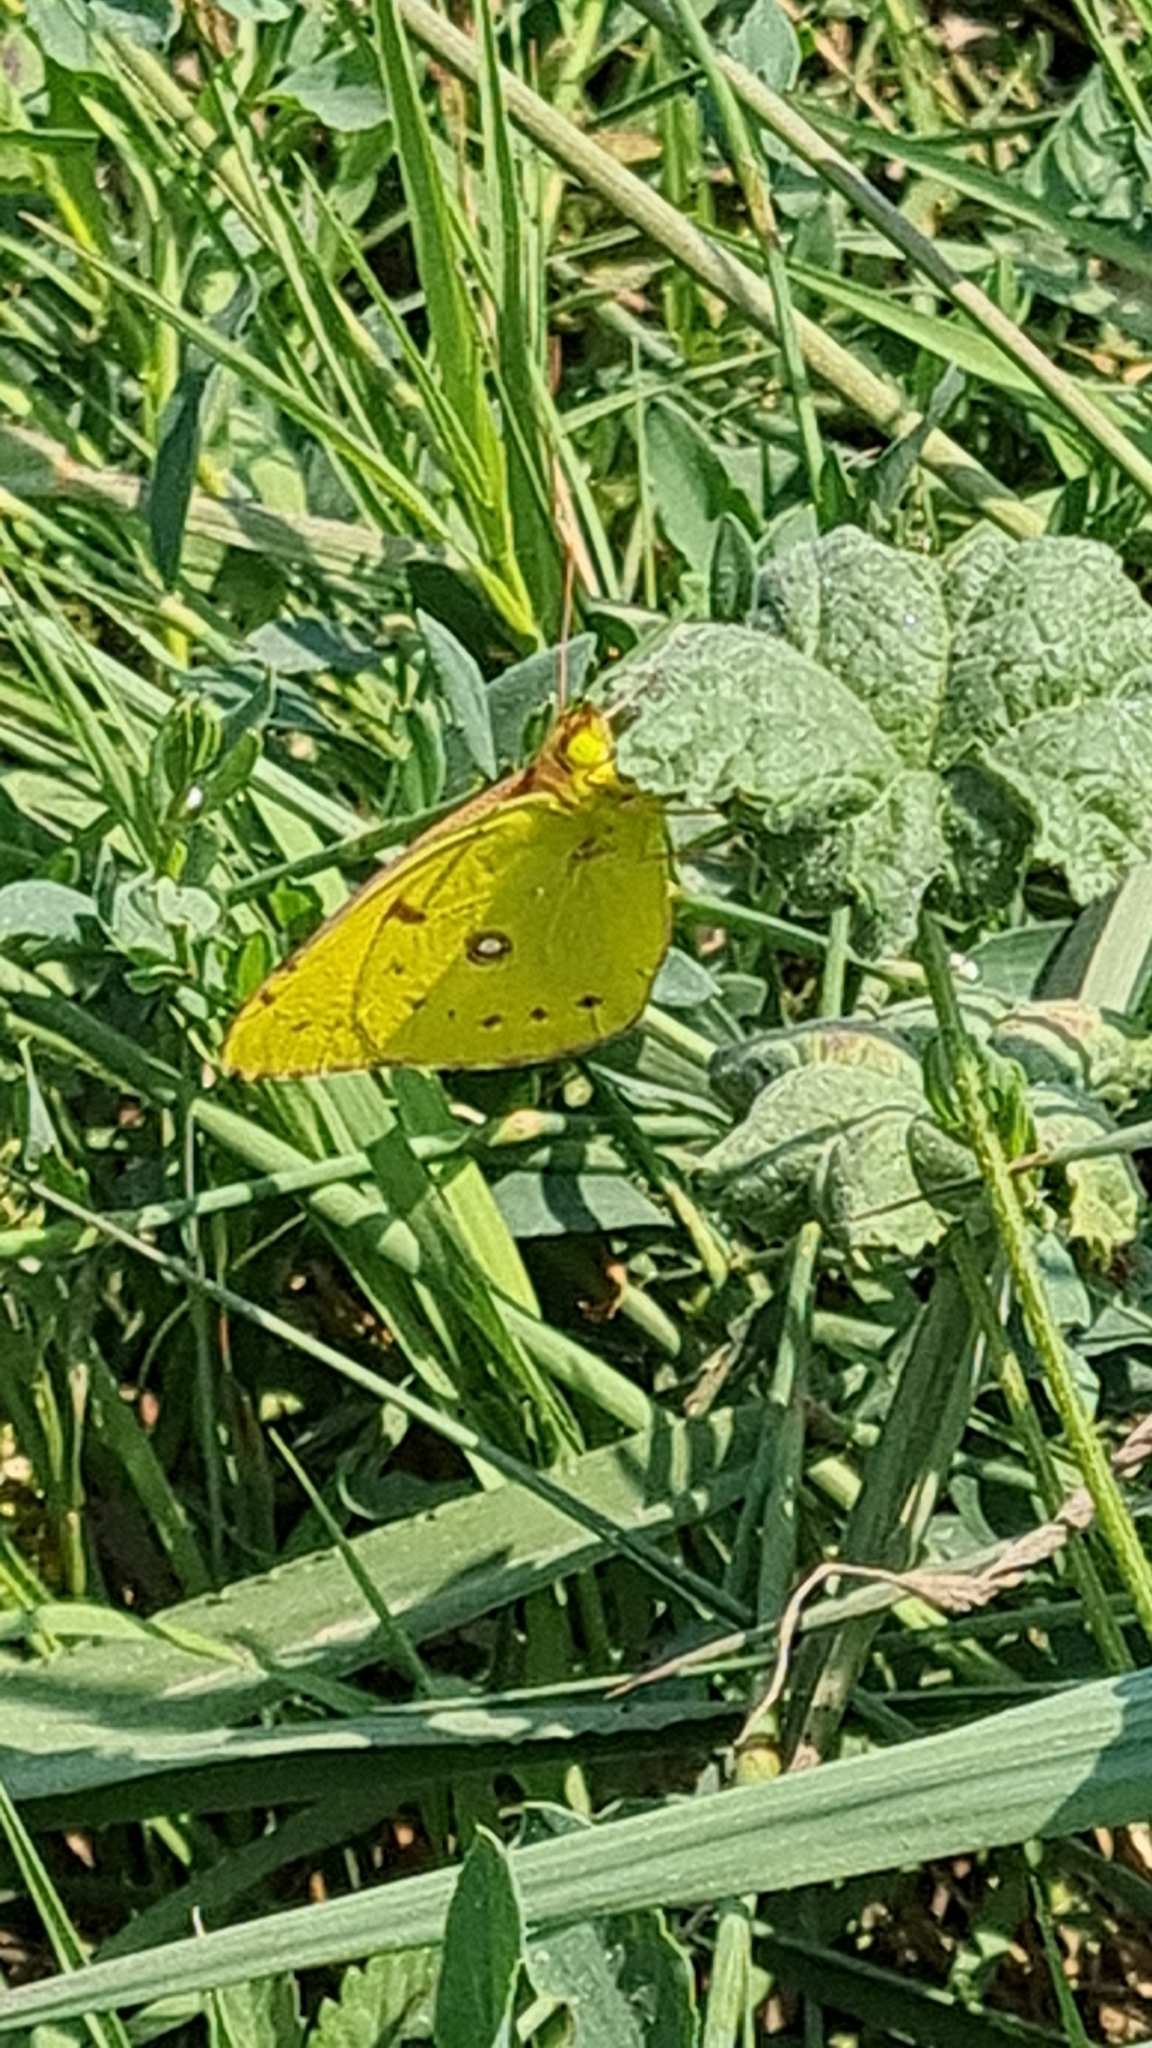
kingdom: Animalia
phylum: Arthropoda
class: Insecta
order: Lepidoptera
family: Pieridae
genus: Colias
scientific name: Colias croceus
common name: Clouded yellow
